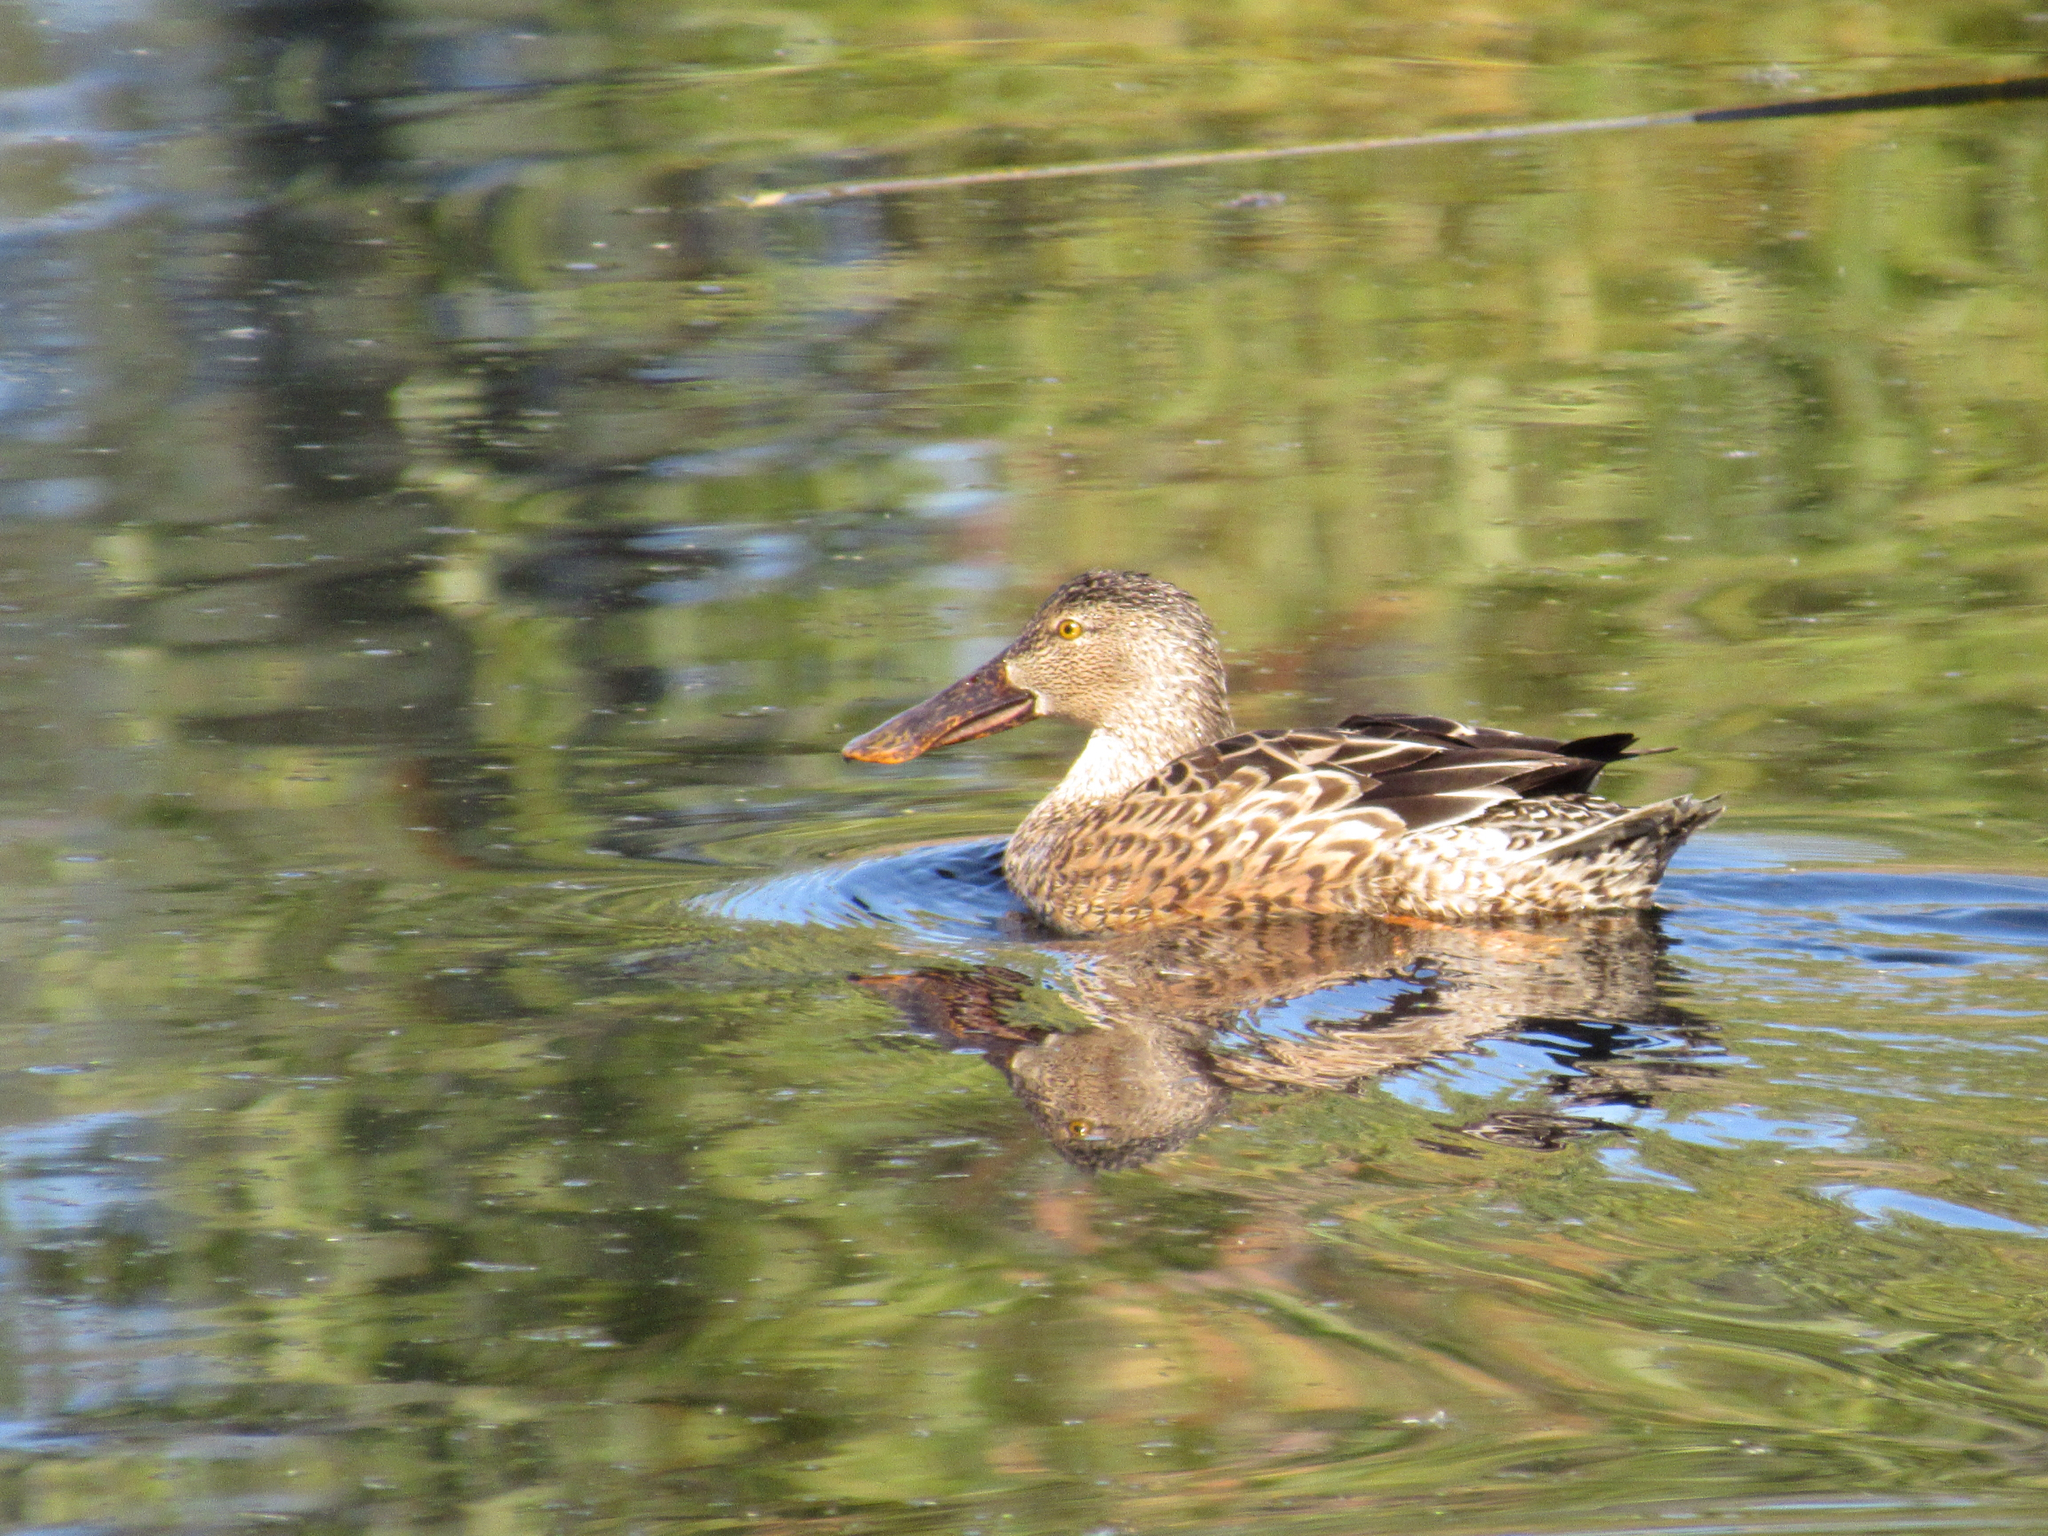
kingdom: Animalia
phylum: Chordata
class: Aves
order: Anseriformes
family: Anatidae
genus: Spatula
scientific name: Spatula clypeata
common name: Northern shoveler
